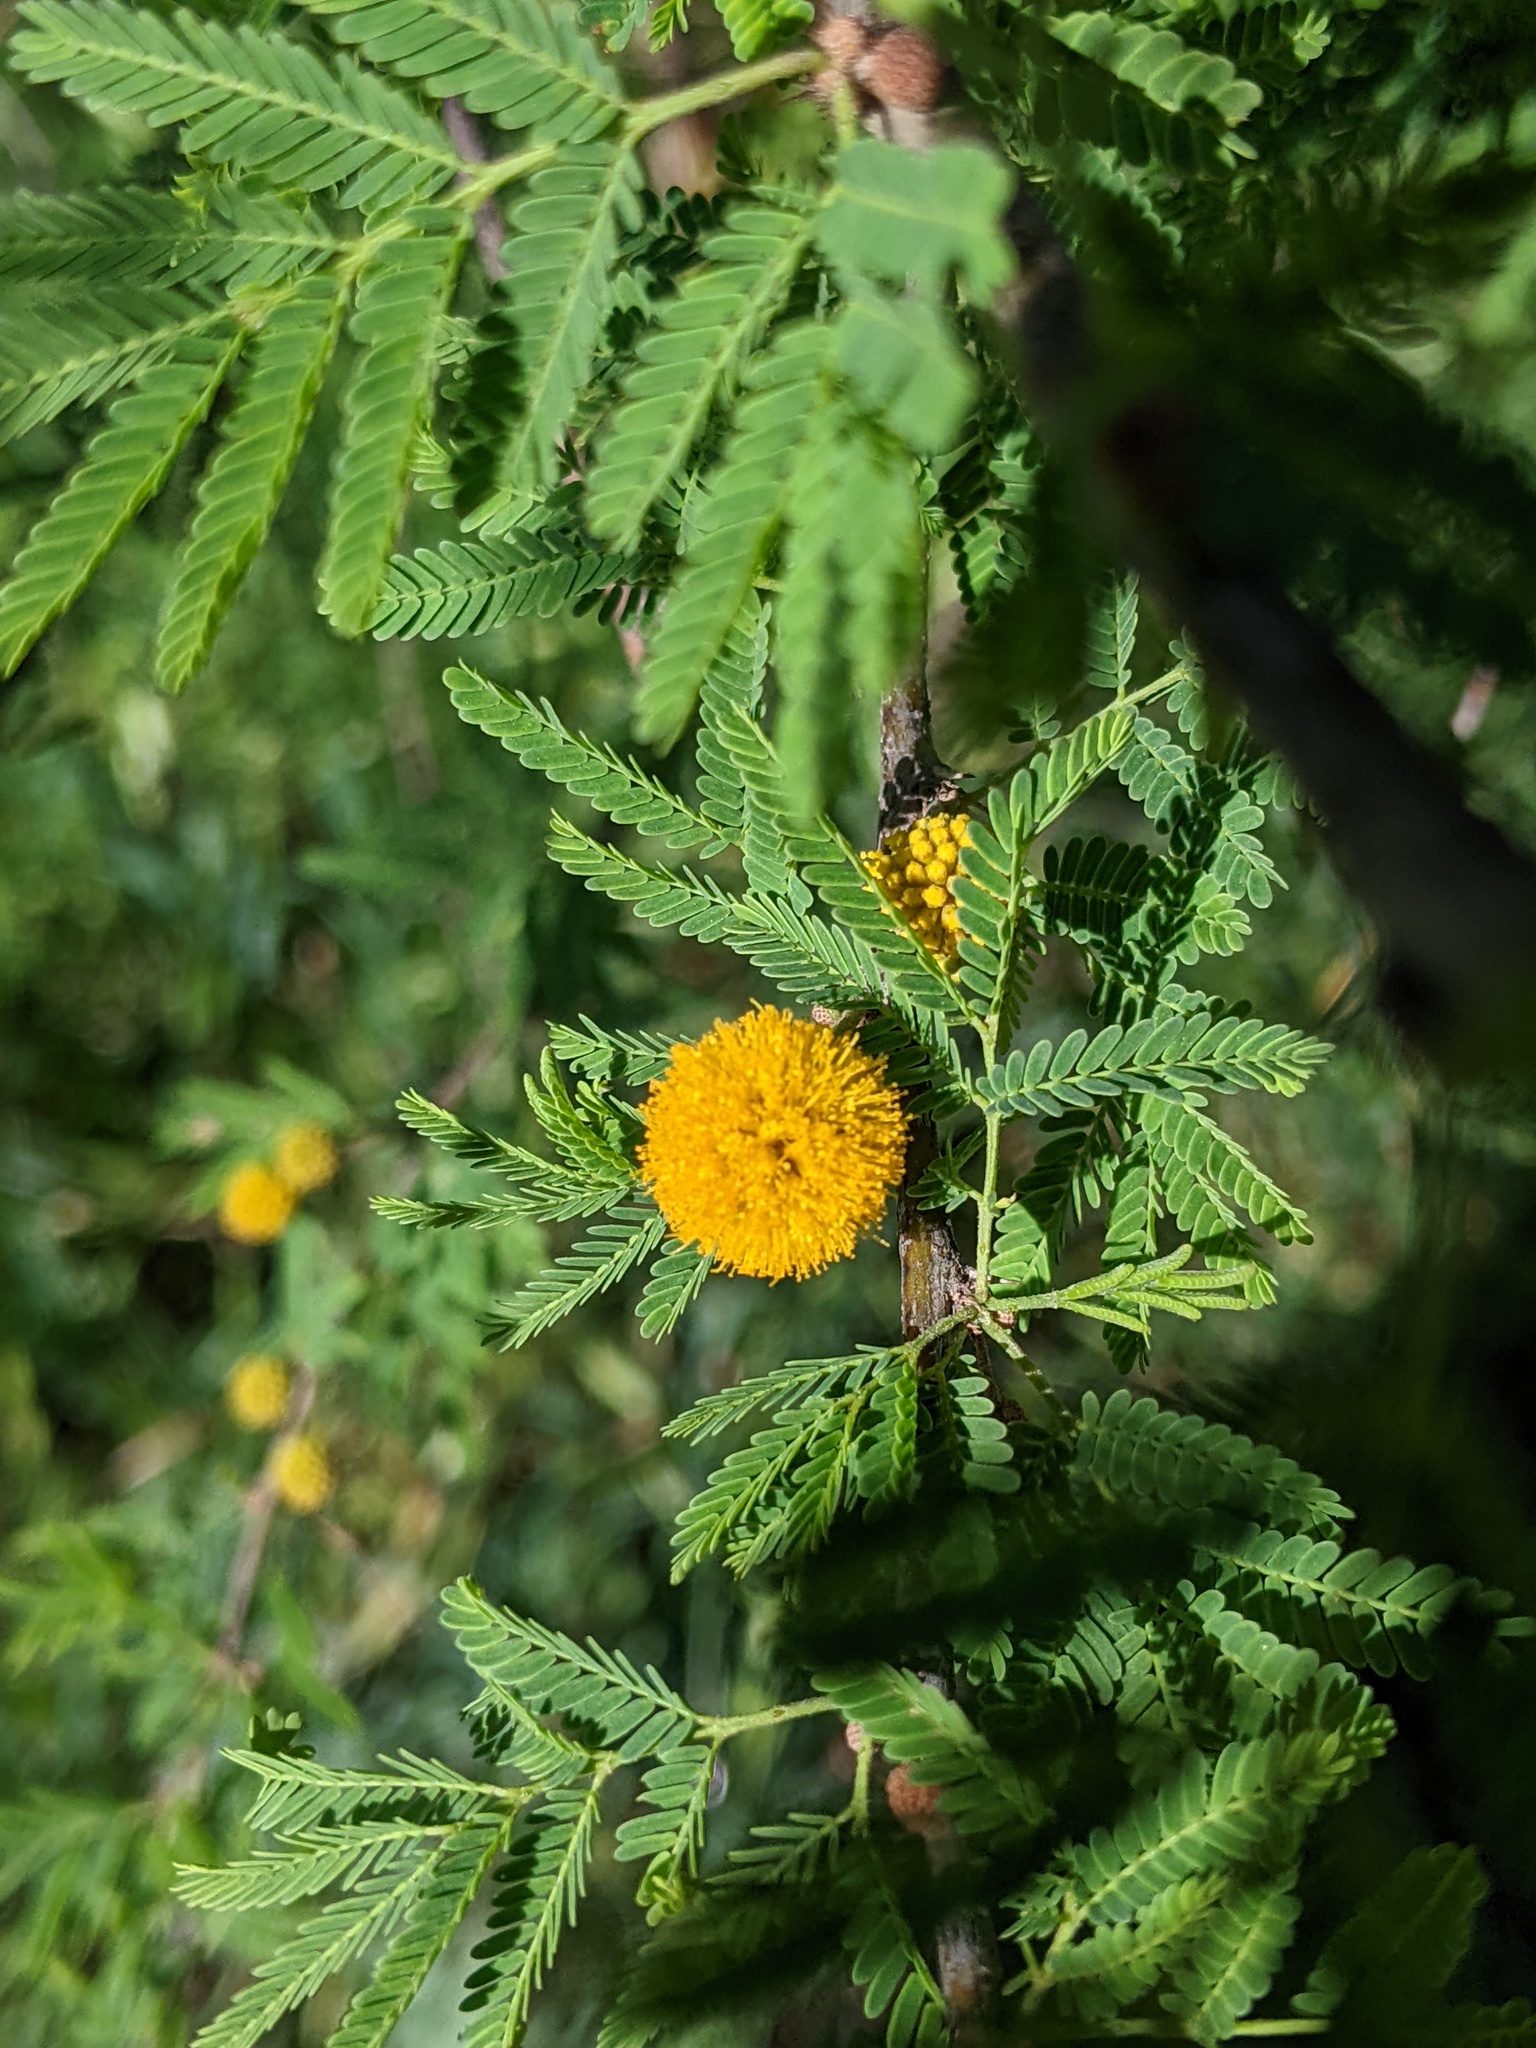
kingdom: Plantae
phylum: Tracheophyta
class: Magnoliopsida
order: Fabales
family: Fabaceae
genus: Vachellia
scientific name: Vachellia farnesiana
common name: Sweet acacia
